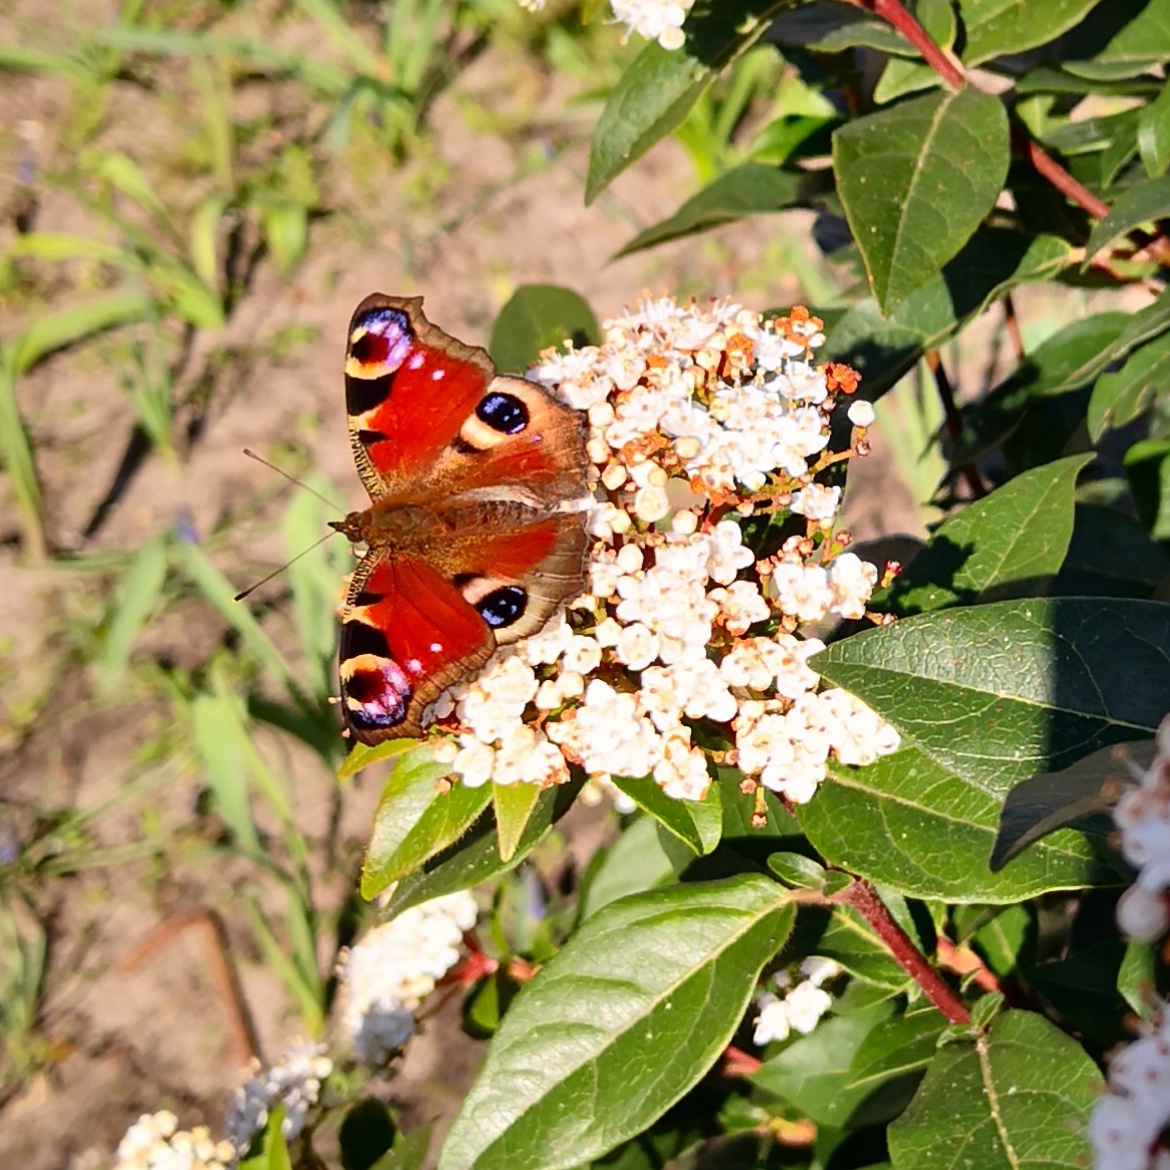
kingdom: Animalia
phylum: Arthropoda
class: Insecta
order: Lepidoptera
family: Nymphalidae
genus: Aglais
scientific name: Aglais io
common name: Peacock
